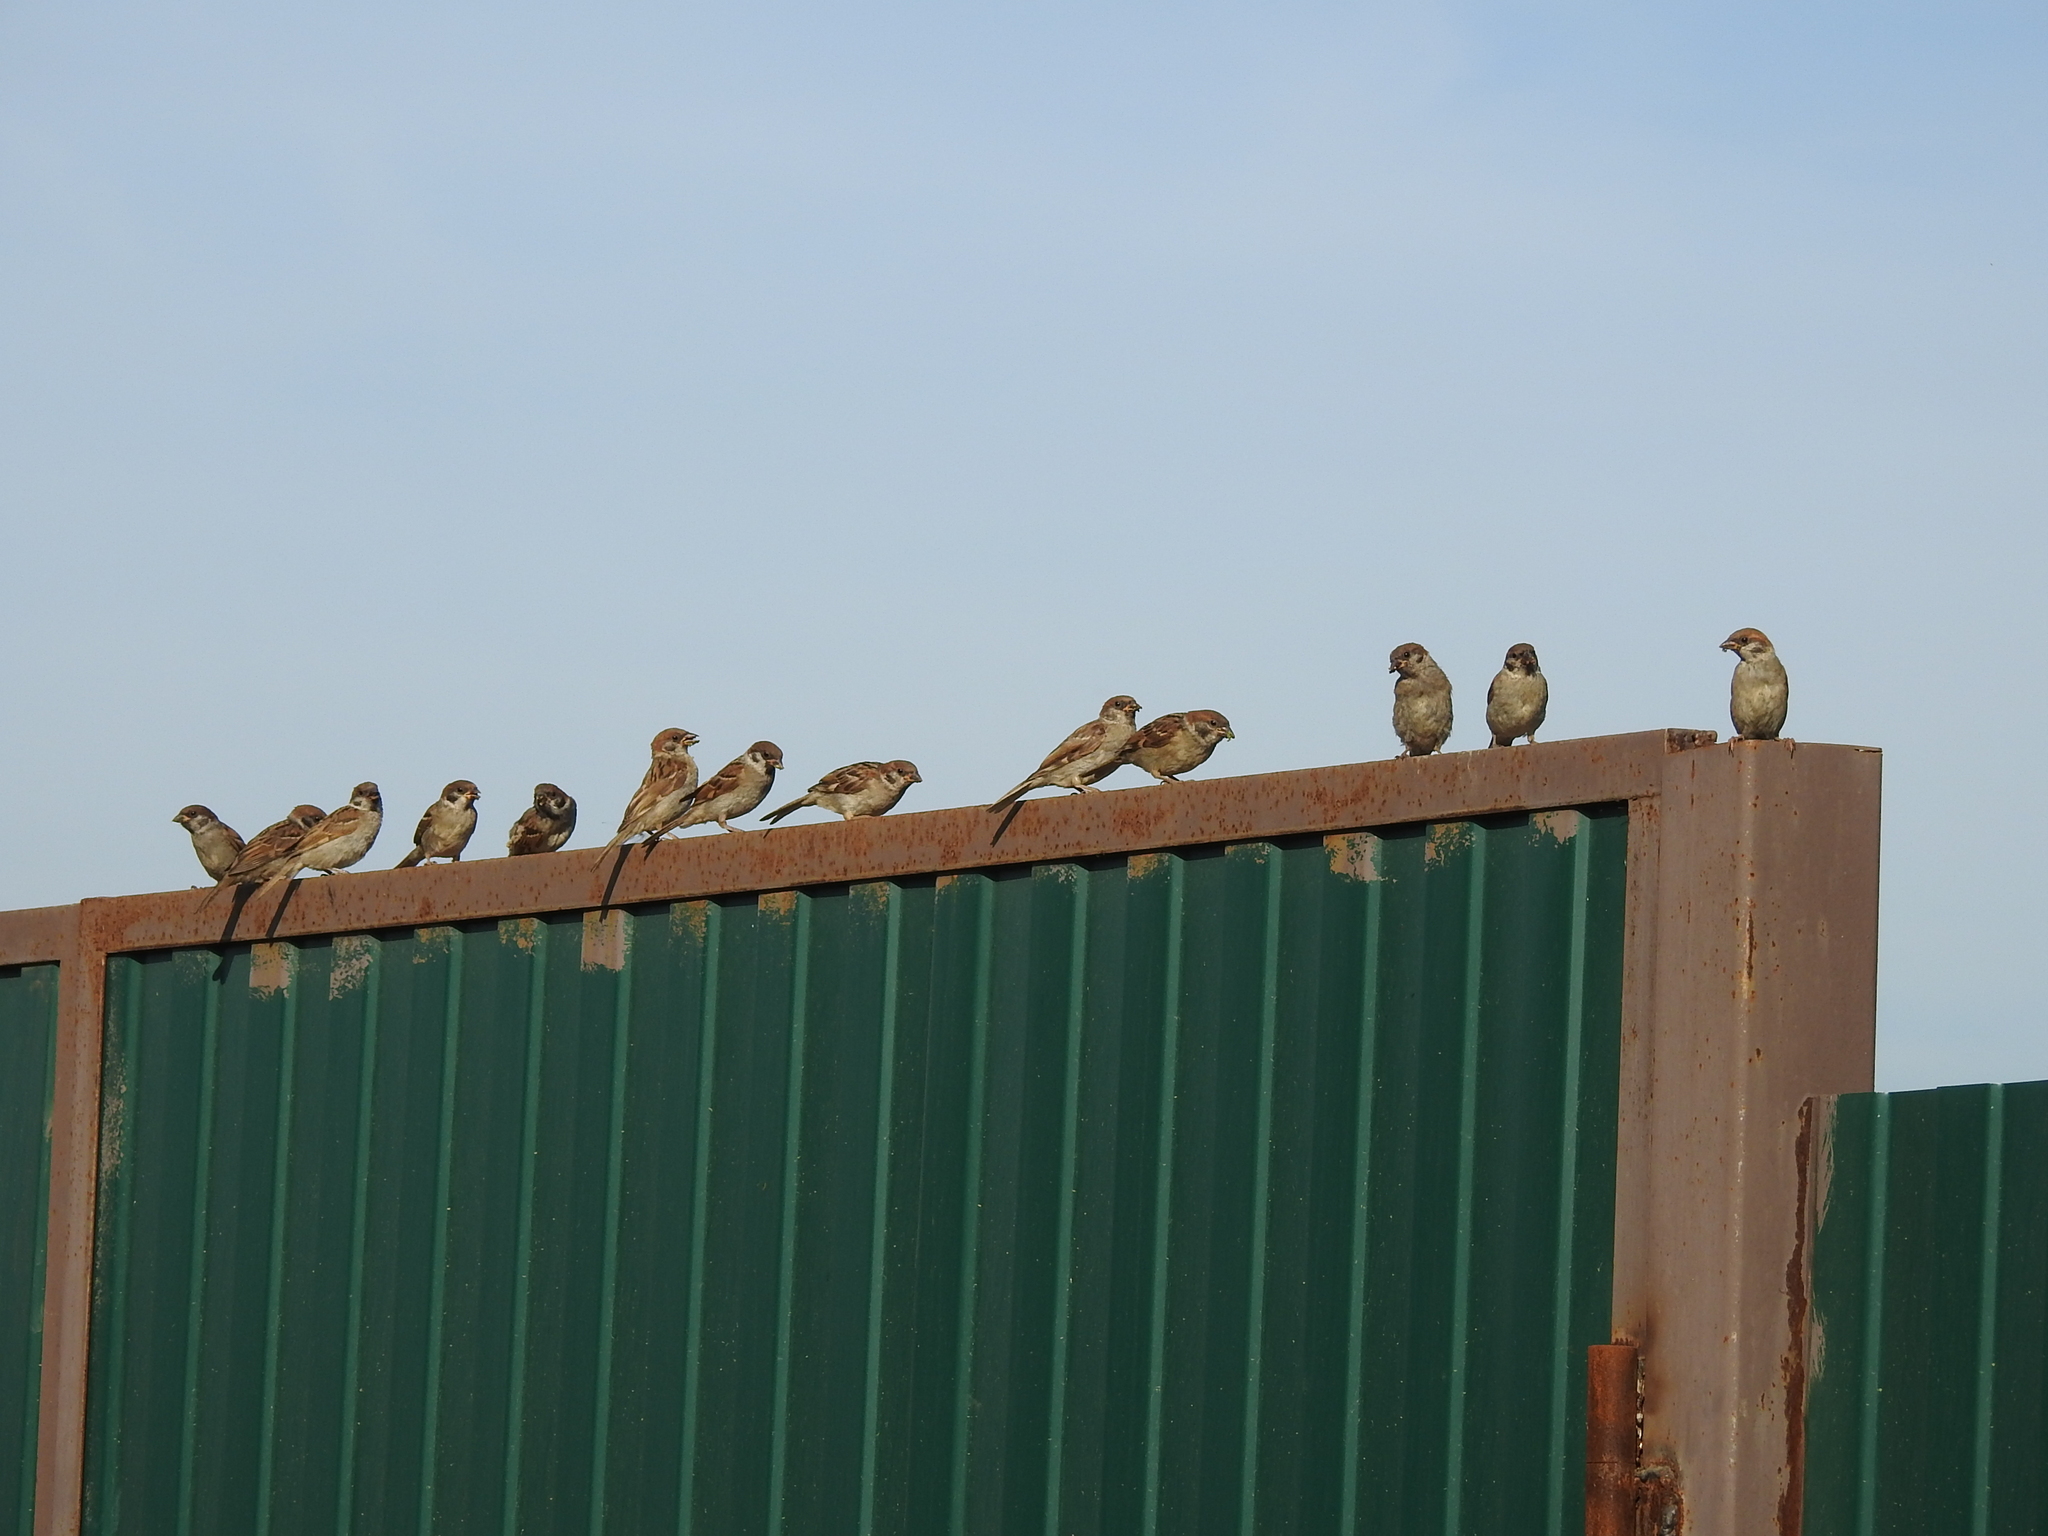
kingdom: Animalia
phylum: Chordata
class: Aves
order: Passeriformes
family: Passeridae
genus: Passer
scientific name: Passer montanus
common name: Eurasian tree sparrow
